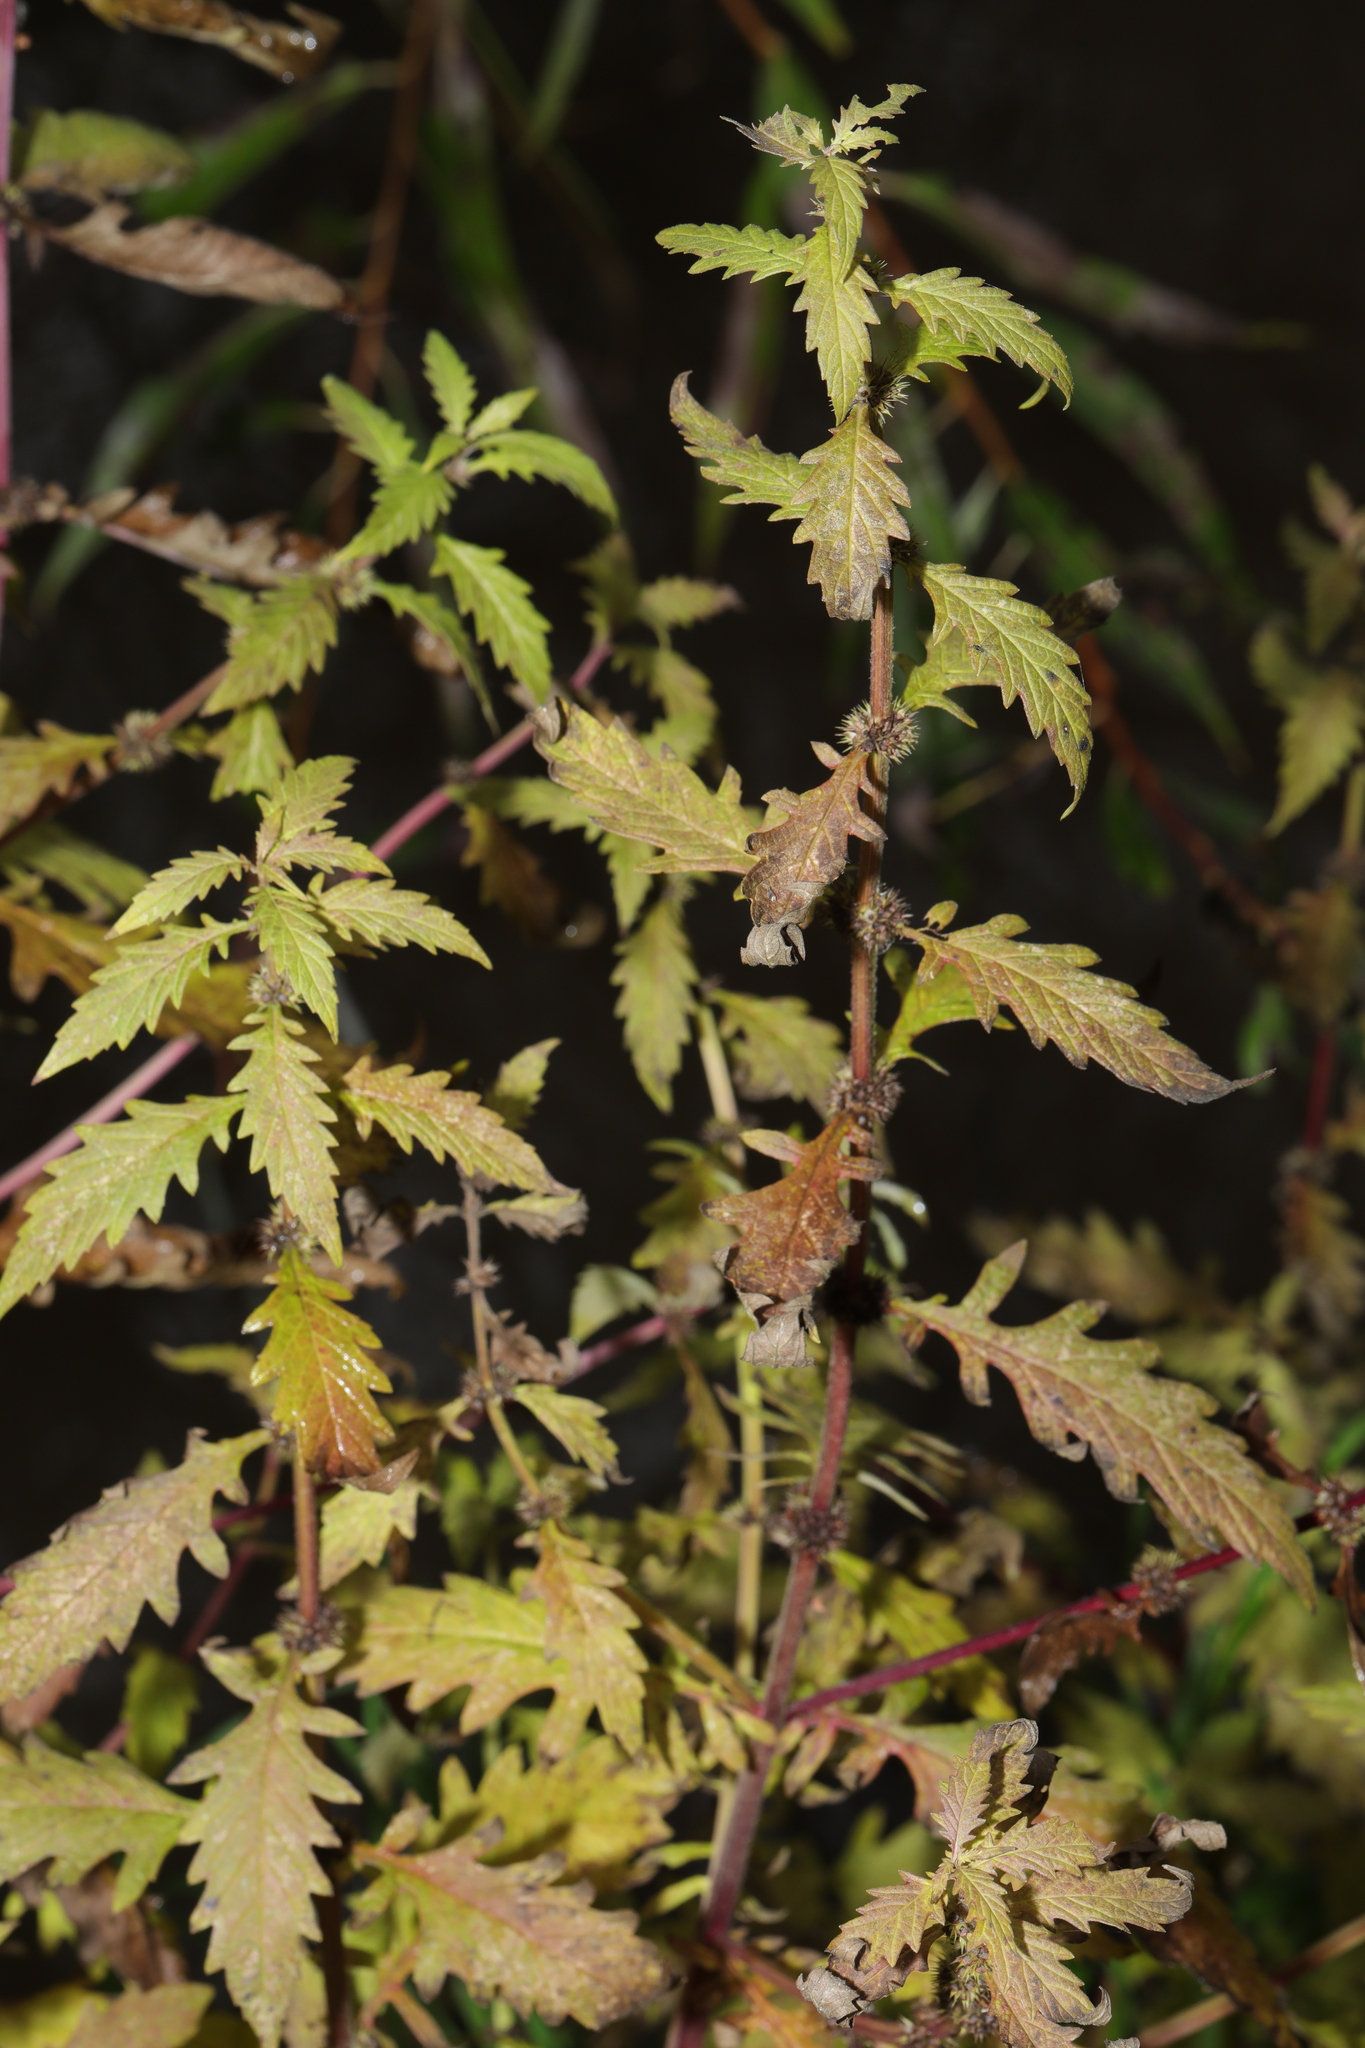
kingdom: Plantae
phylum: Tracheophyta
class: Magnoliopsida
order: Lamiales
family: Lamiaceae
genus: Lycopus
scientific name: Lycopus europaeus
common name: European bugleweed
